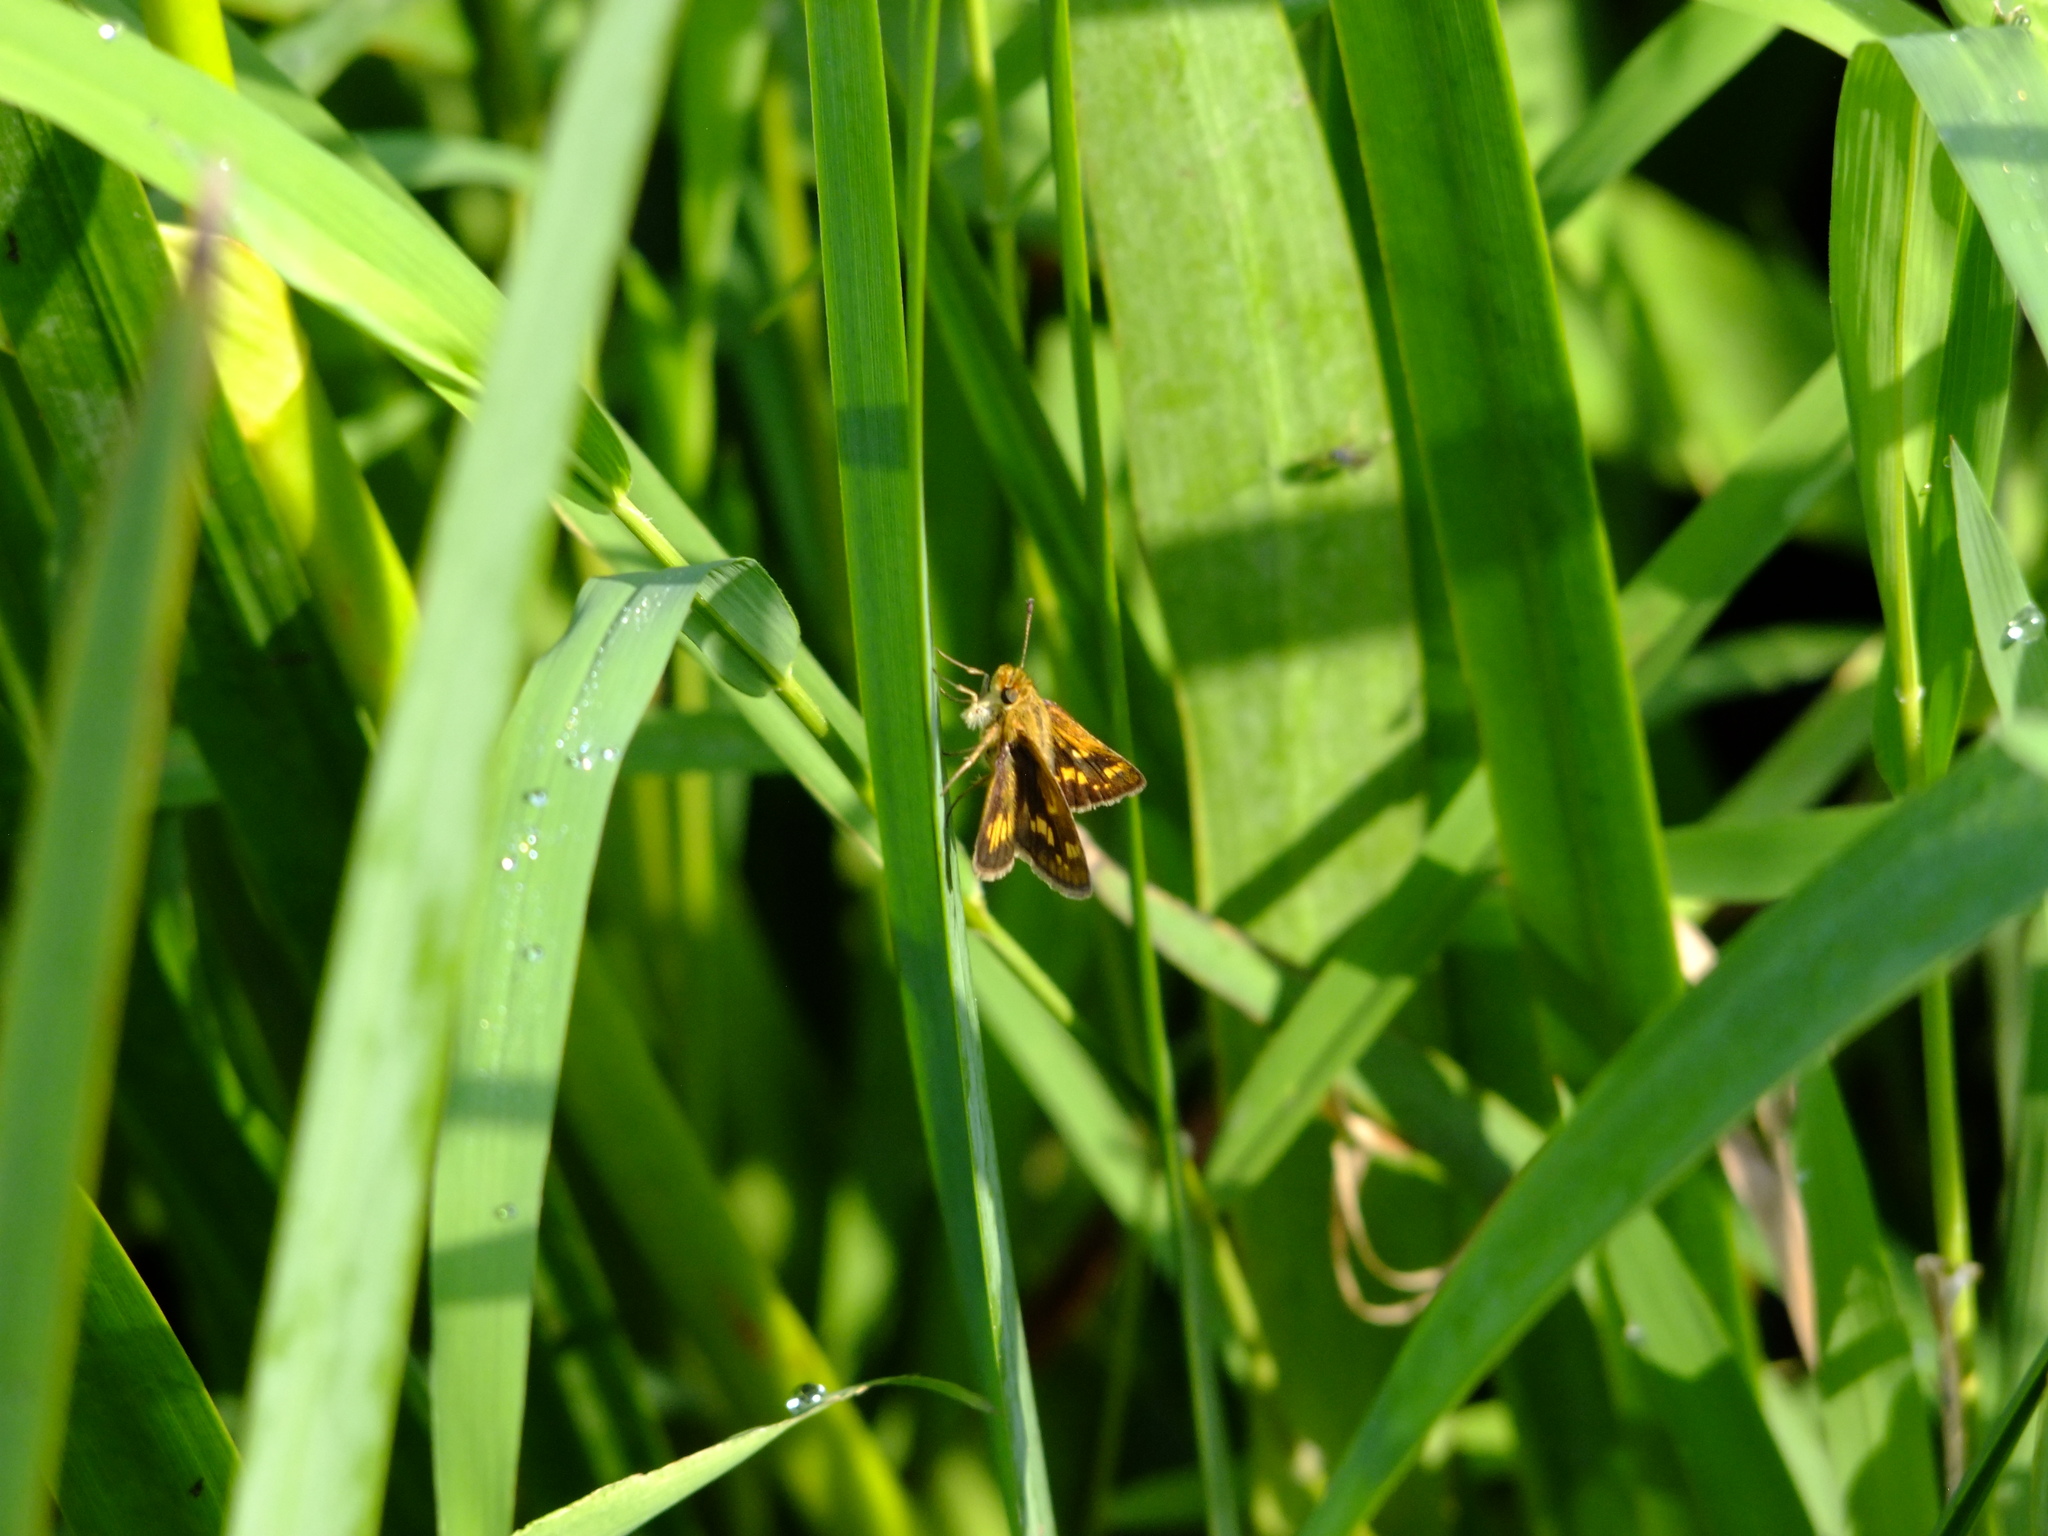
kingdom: Animalia
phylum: Arthropoda
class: Insecta
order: Lepidoptera
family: Hesperiidae
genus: Polites
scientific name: Polites coras
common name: Peck's skipper
